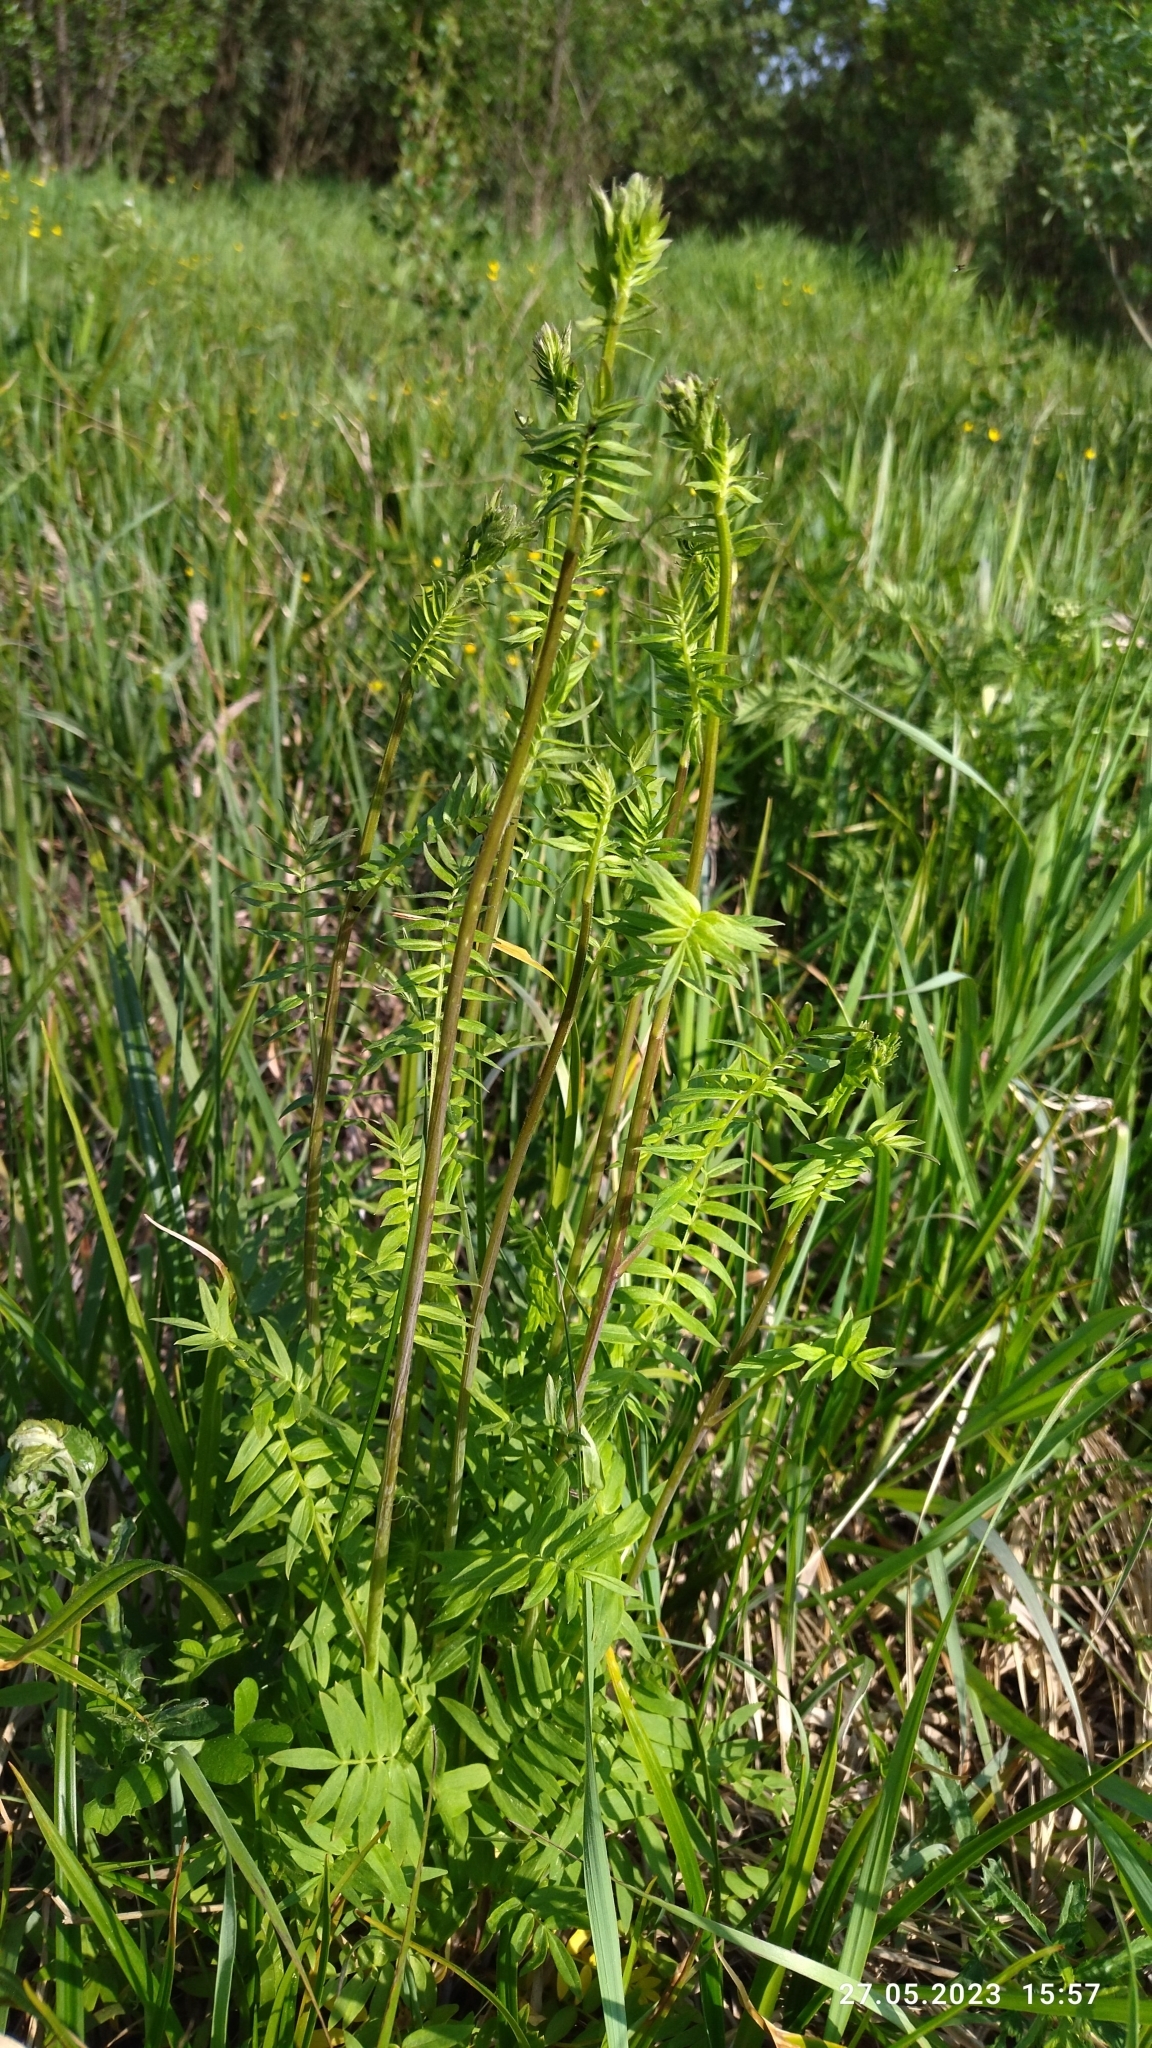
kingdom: Plantae
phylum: Tracheophyta
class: Magnoliopsida
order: Ericales
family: Polemoniaceae
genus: Polemonium
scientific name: Polemonium caeruleum
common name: Jacob's-ladder
